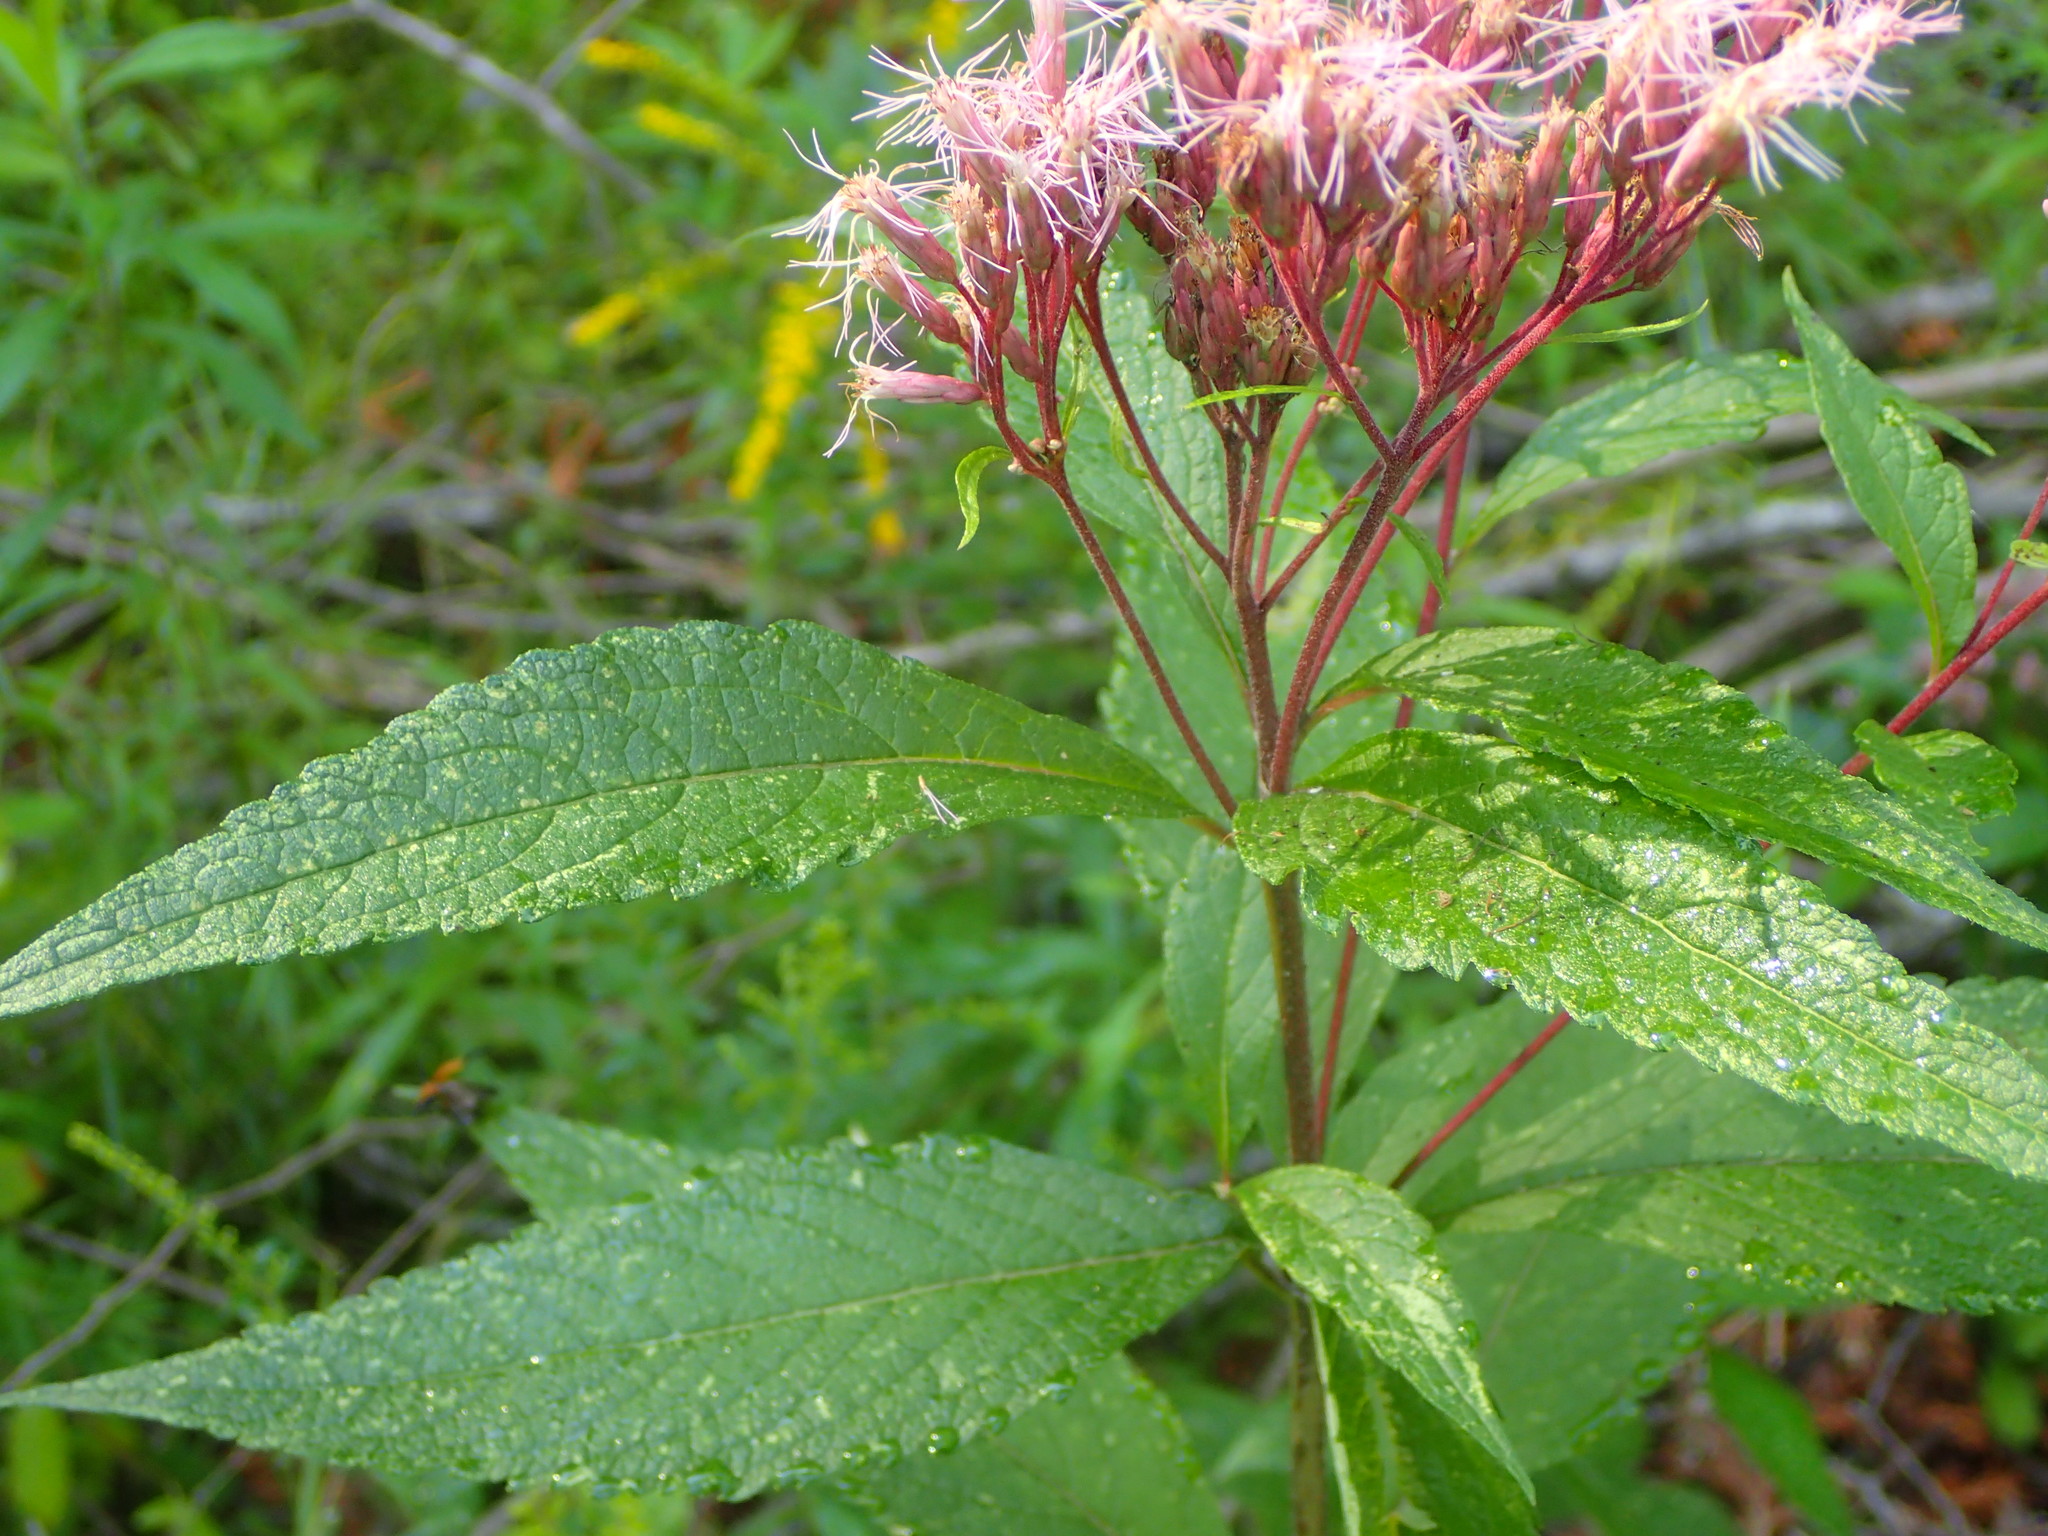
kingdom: Plantae
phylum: Tracheophyta
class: Magnoliopsida
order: Asterales
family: Asteraceae
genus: Eutrochium
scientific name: Eutrochium maculatum
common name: Spotted joe pye weed
